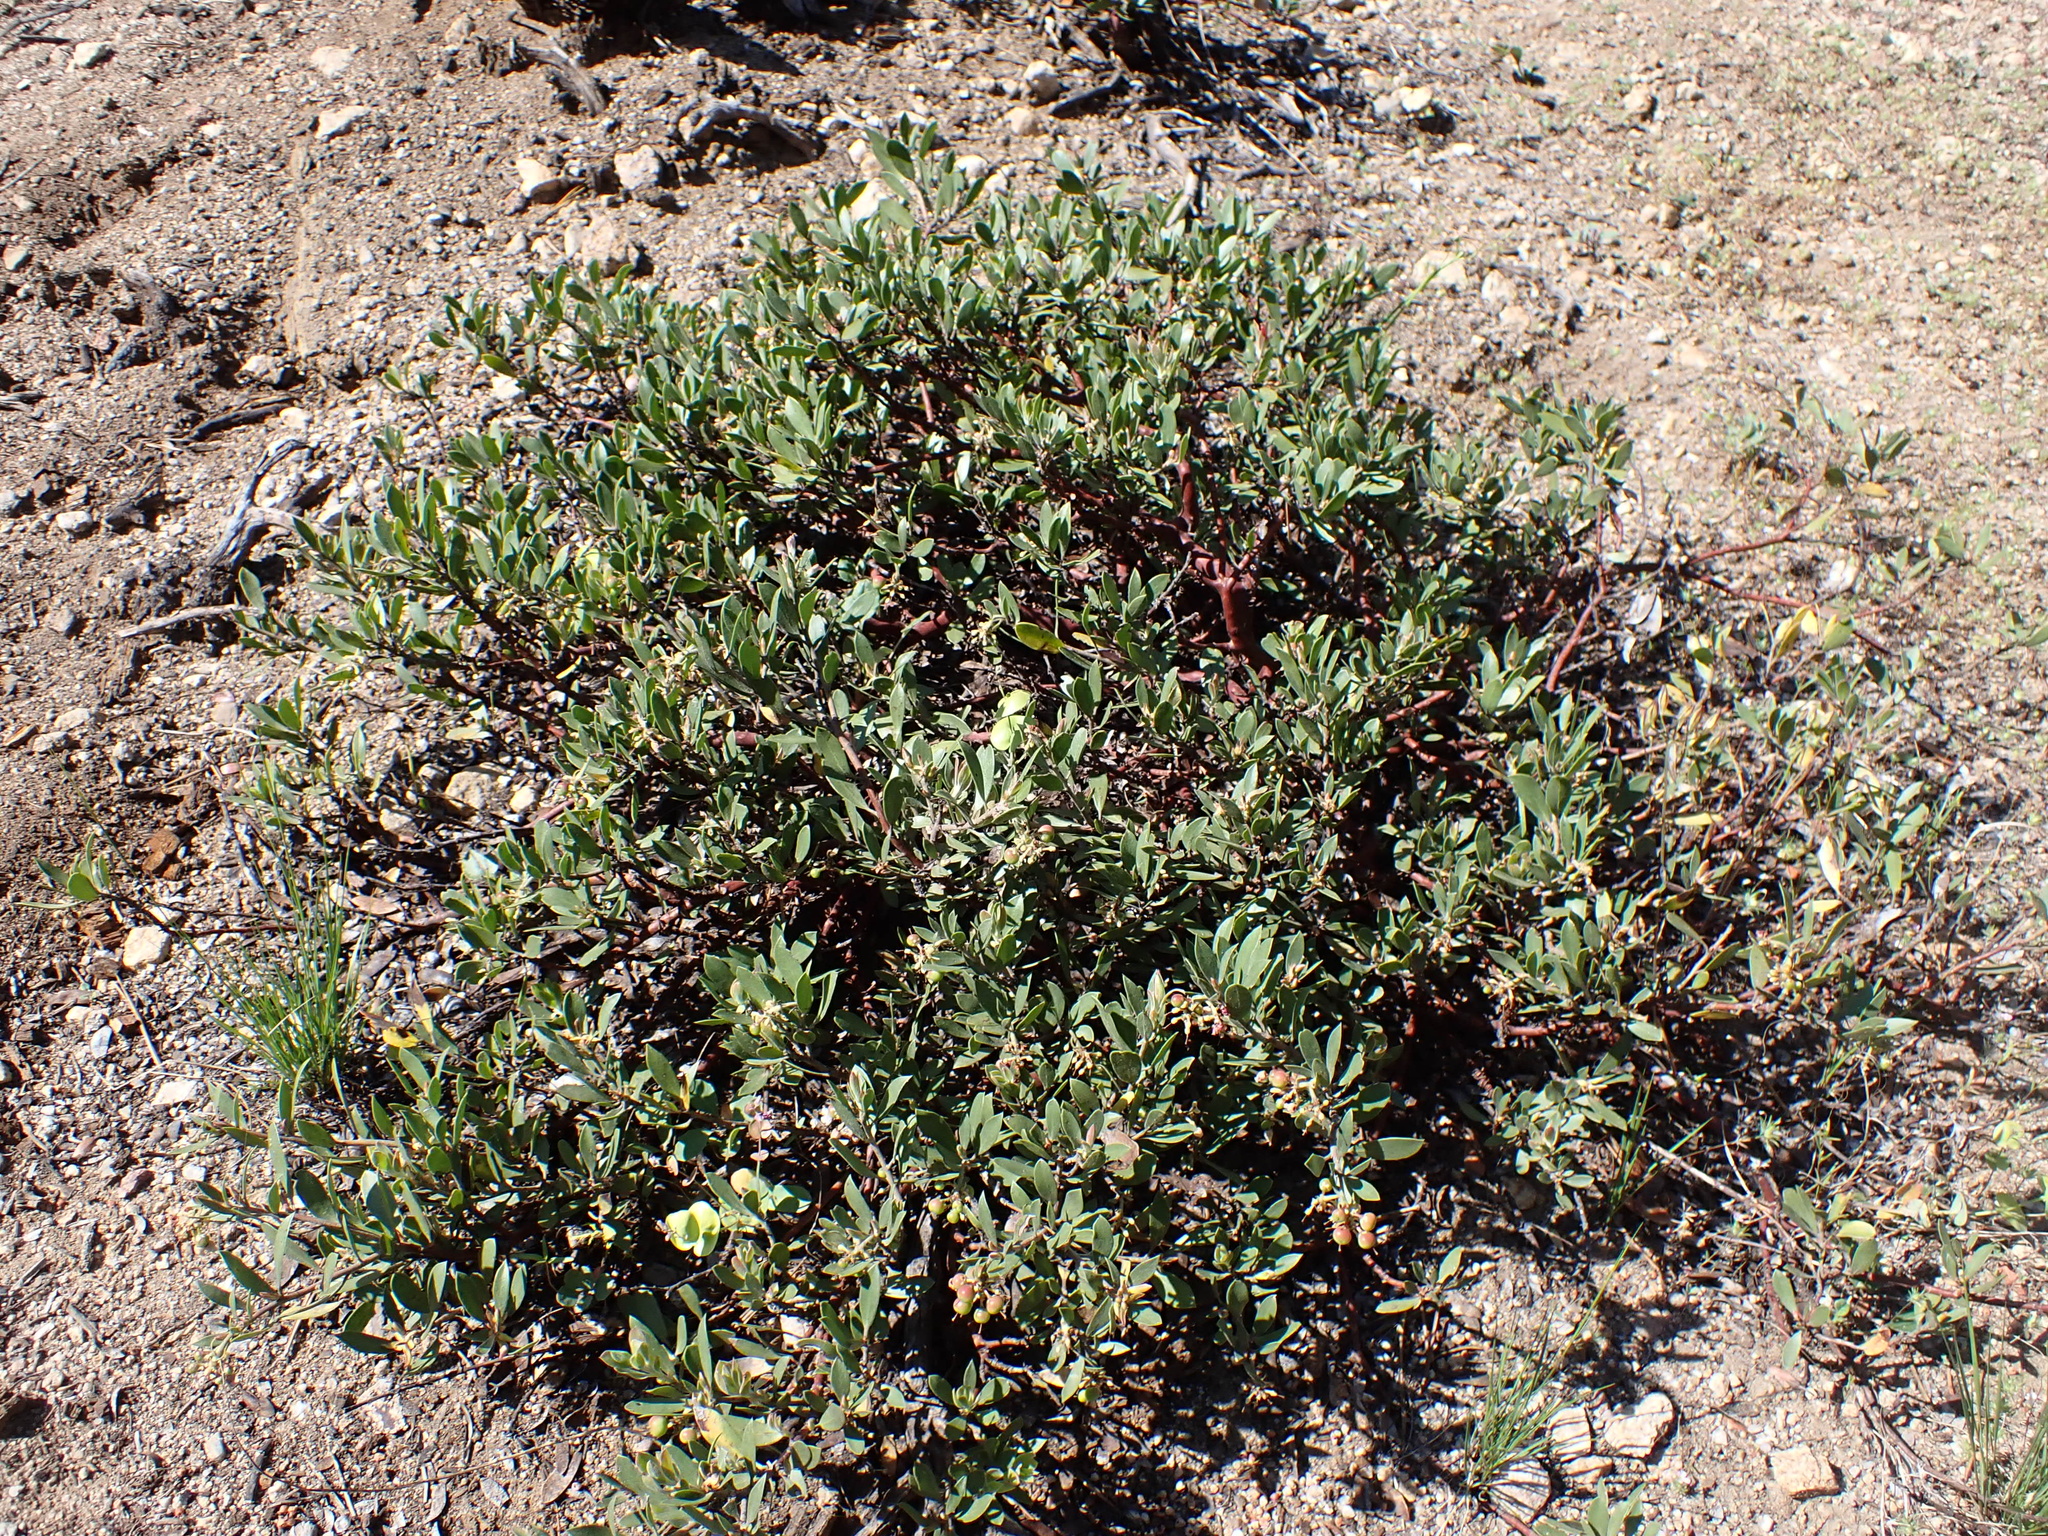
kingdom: Plantae
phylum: Tracheophyta
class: Magnoliopsida
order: Ericales
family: Ericaceae
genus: Arctostaphylos
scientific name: Arctostaphylos nevadensis
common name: Pinemat manzanita
